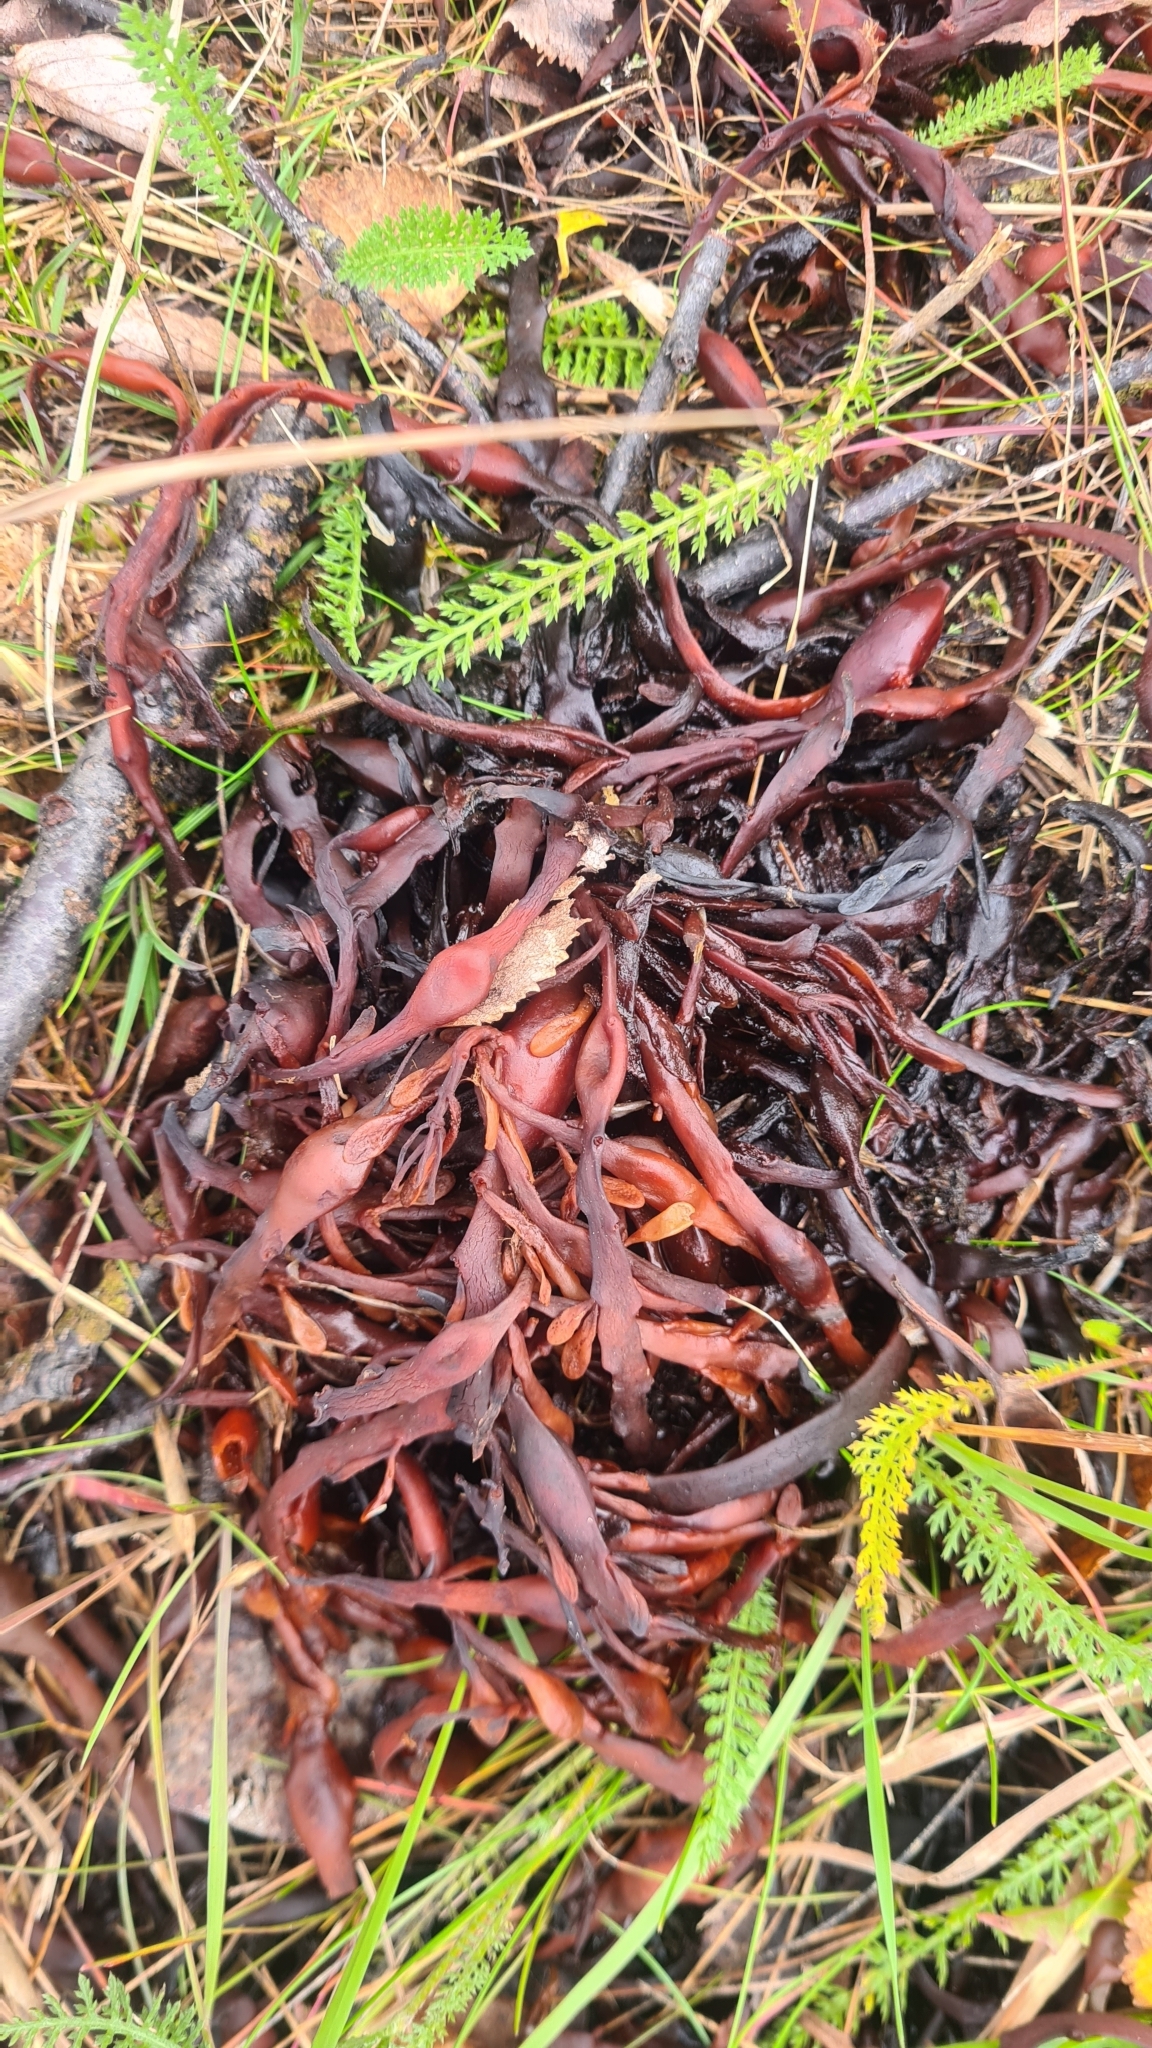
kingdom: Chromista
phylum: Ochrophyta
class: Phaeophyceae
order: Fucales
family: Fucaceae
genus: Ascophyllum
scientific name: Ascophyllum nodosum
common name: Knotted wrack
